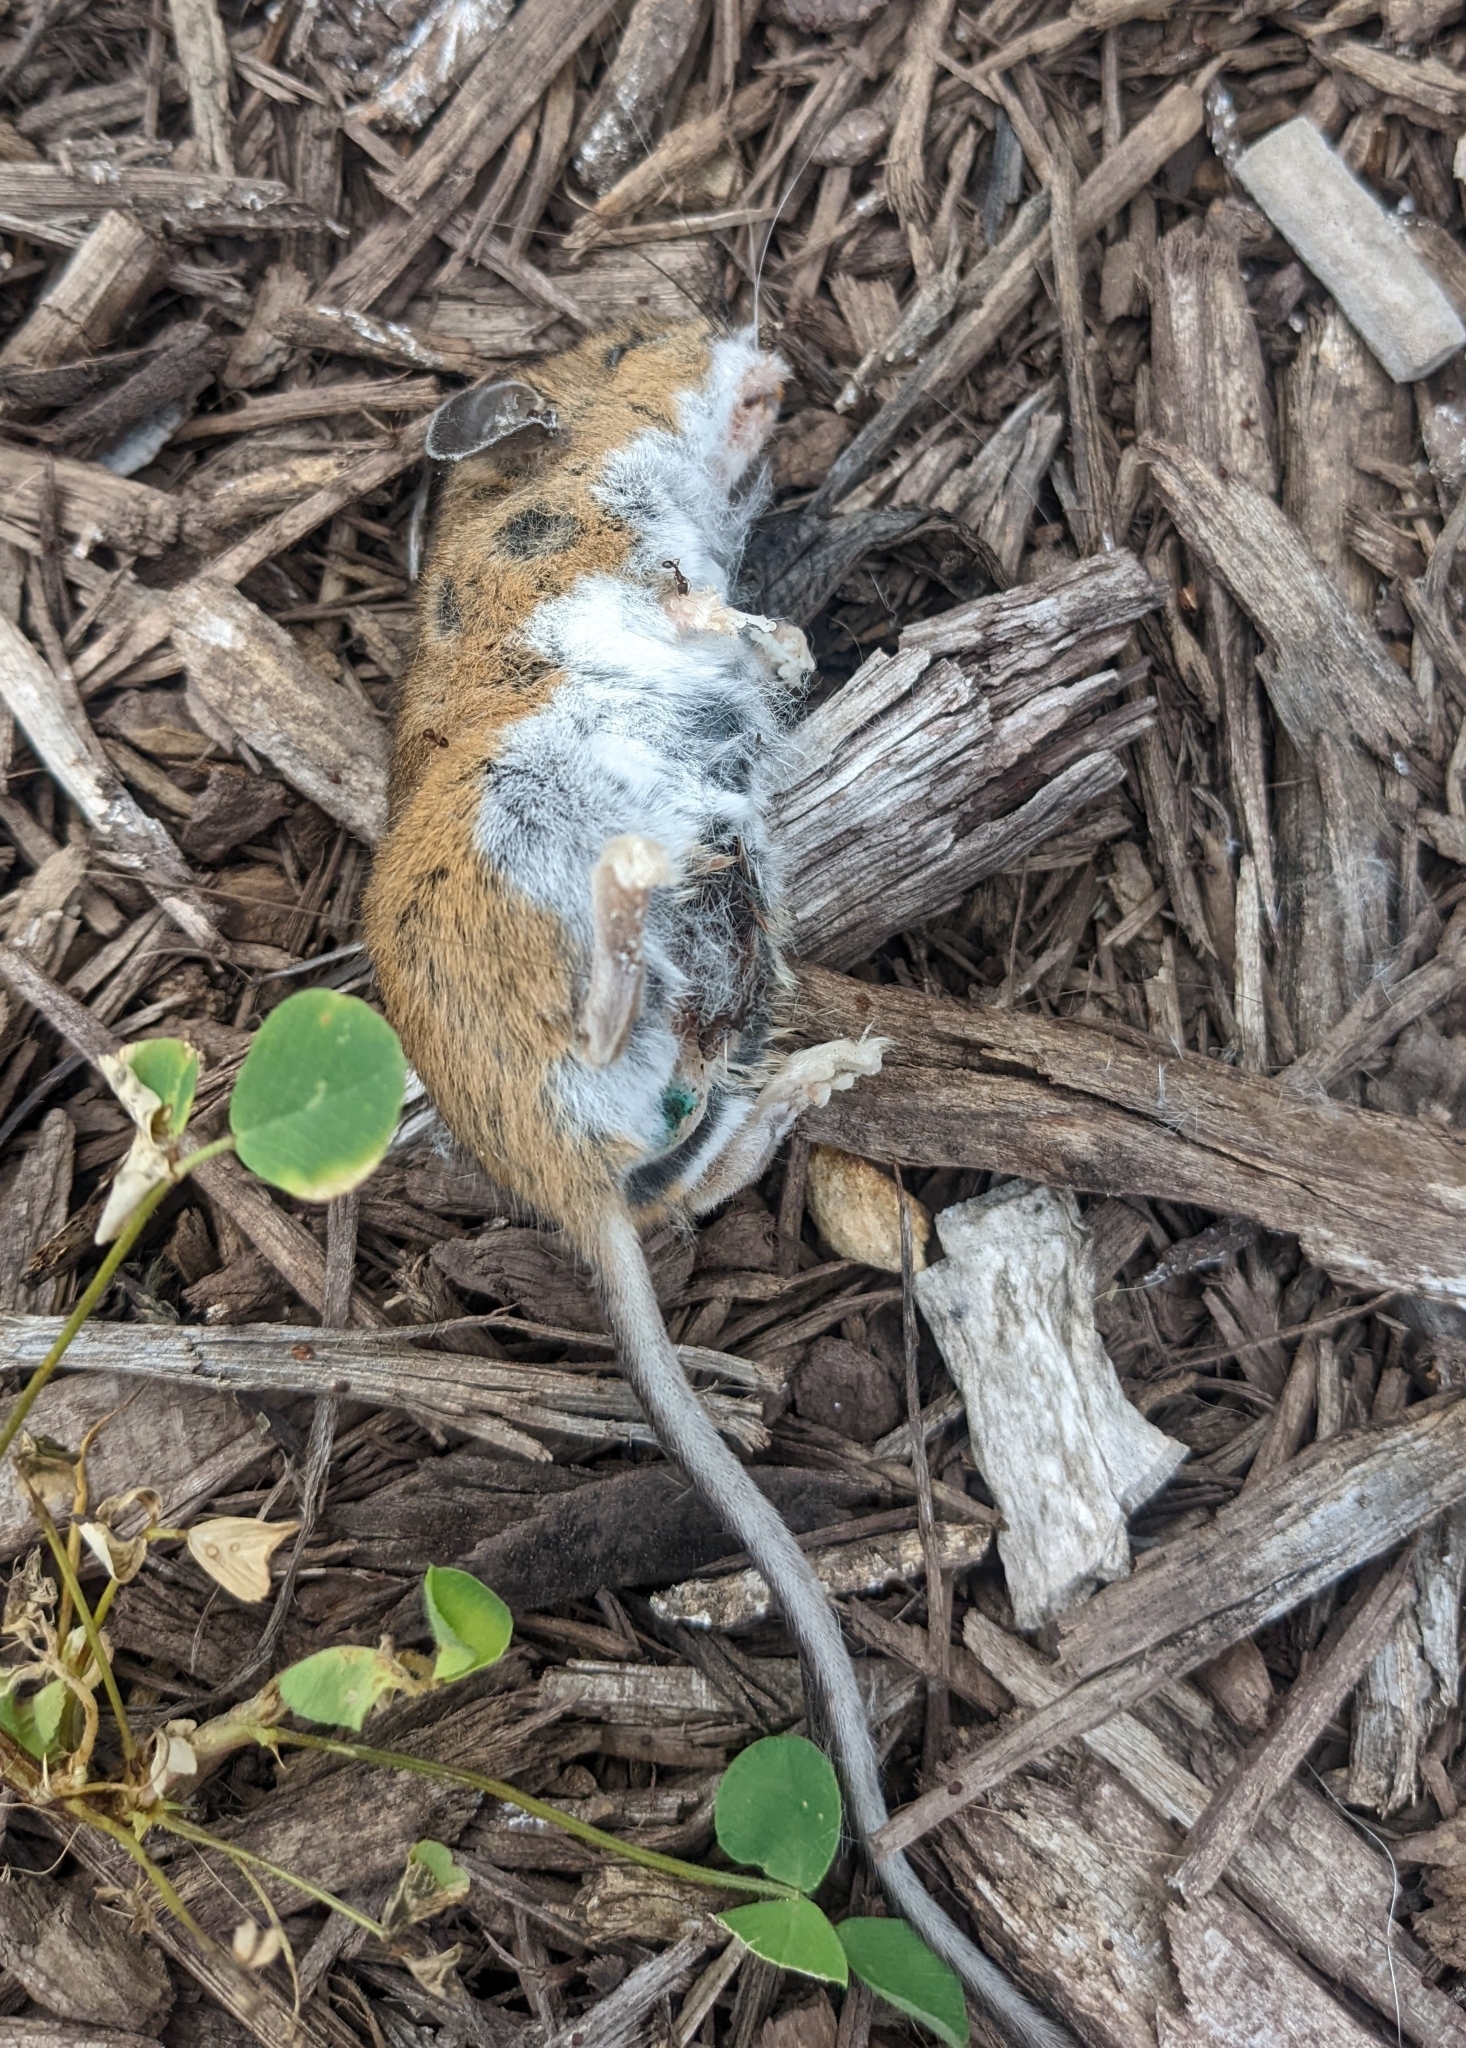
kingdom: Animalia
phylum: Chordata
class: Mammalia
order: Rodentia
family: Cricetidae
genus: Peromyscus
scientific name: Peromyscus maniculatus
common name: Deer mouse
